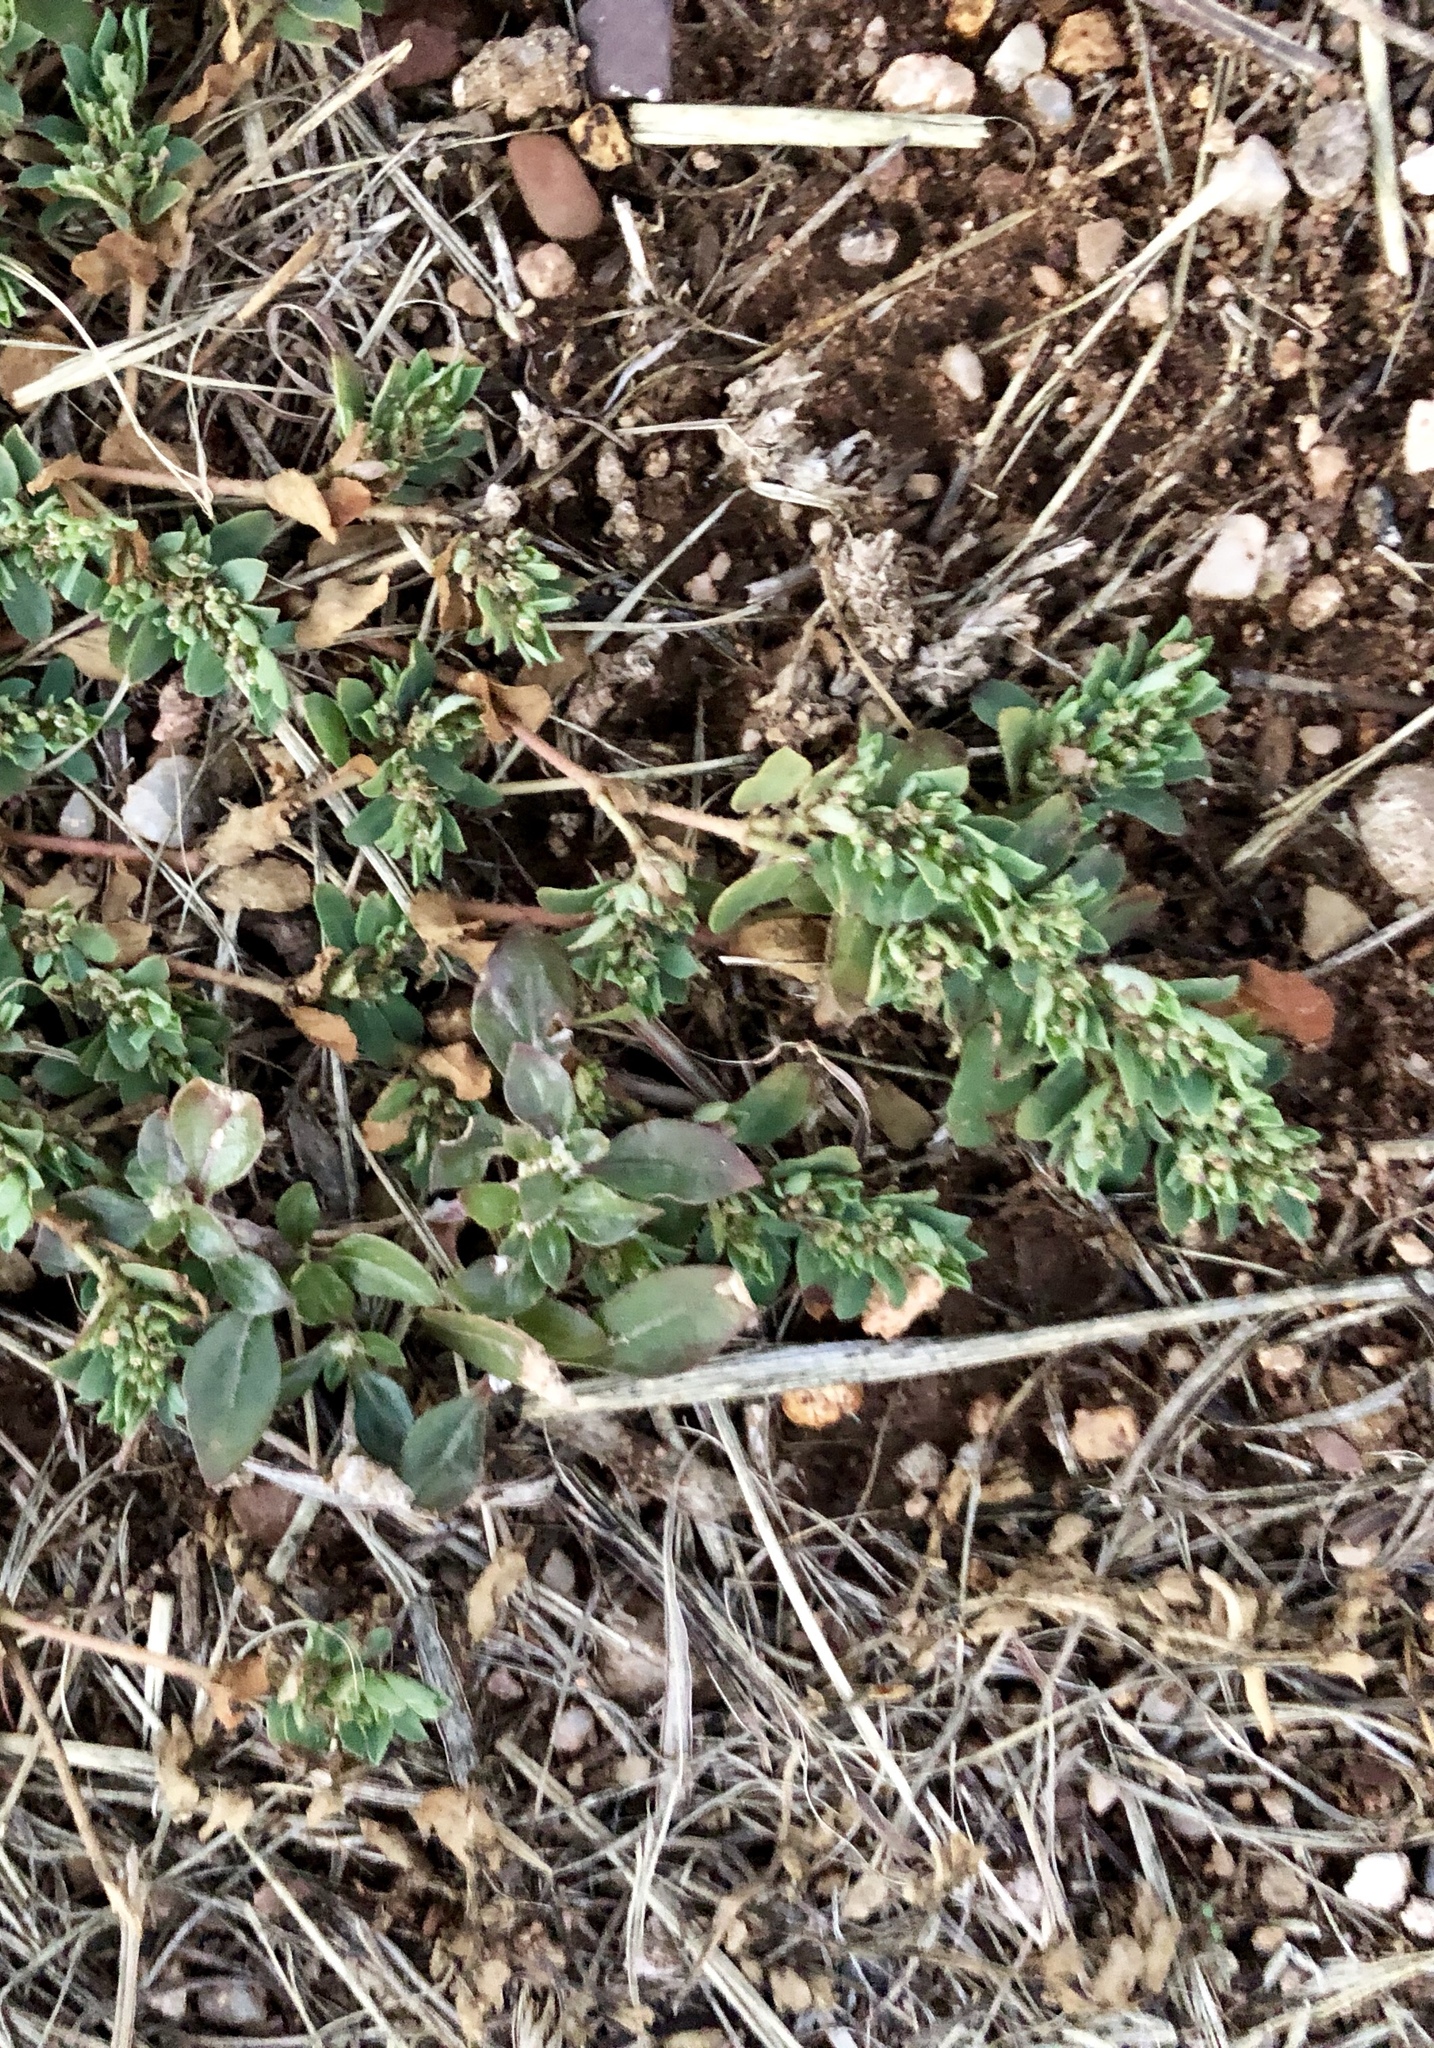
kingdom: Plantae
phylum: Tracheophyta
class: Magnoliopsida
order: Malpighiales
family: Euphorbiaceae
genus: Euphorbia
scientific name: Euphorbia stictospora
